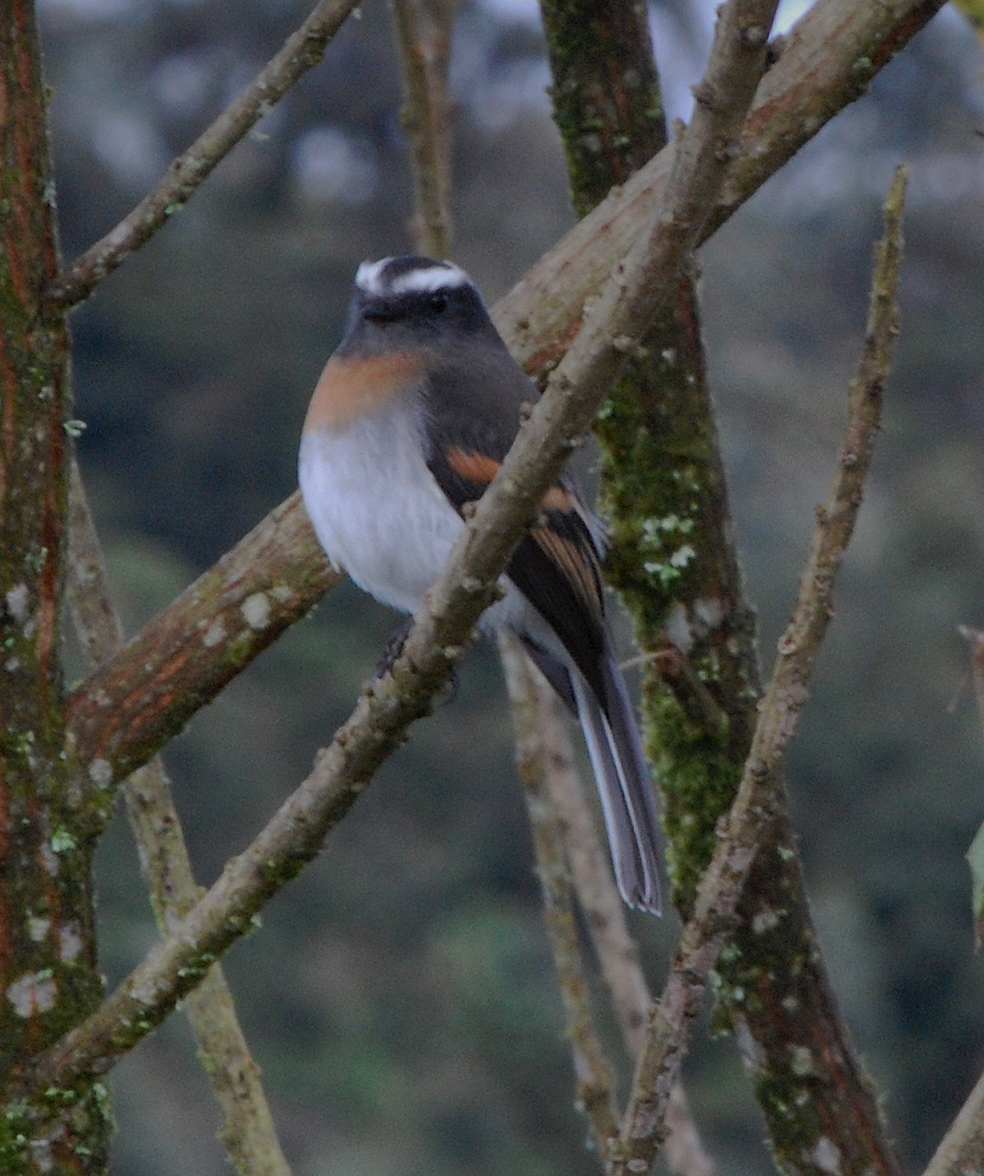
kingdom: Animalia
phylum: Chordata
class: Aves
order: Passeriformes
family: Tyrannidae
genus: Ochthoeca
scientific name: Ochthoeca rufipectoralis
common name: Rufous-breasted chat-tyrant
